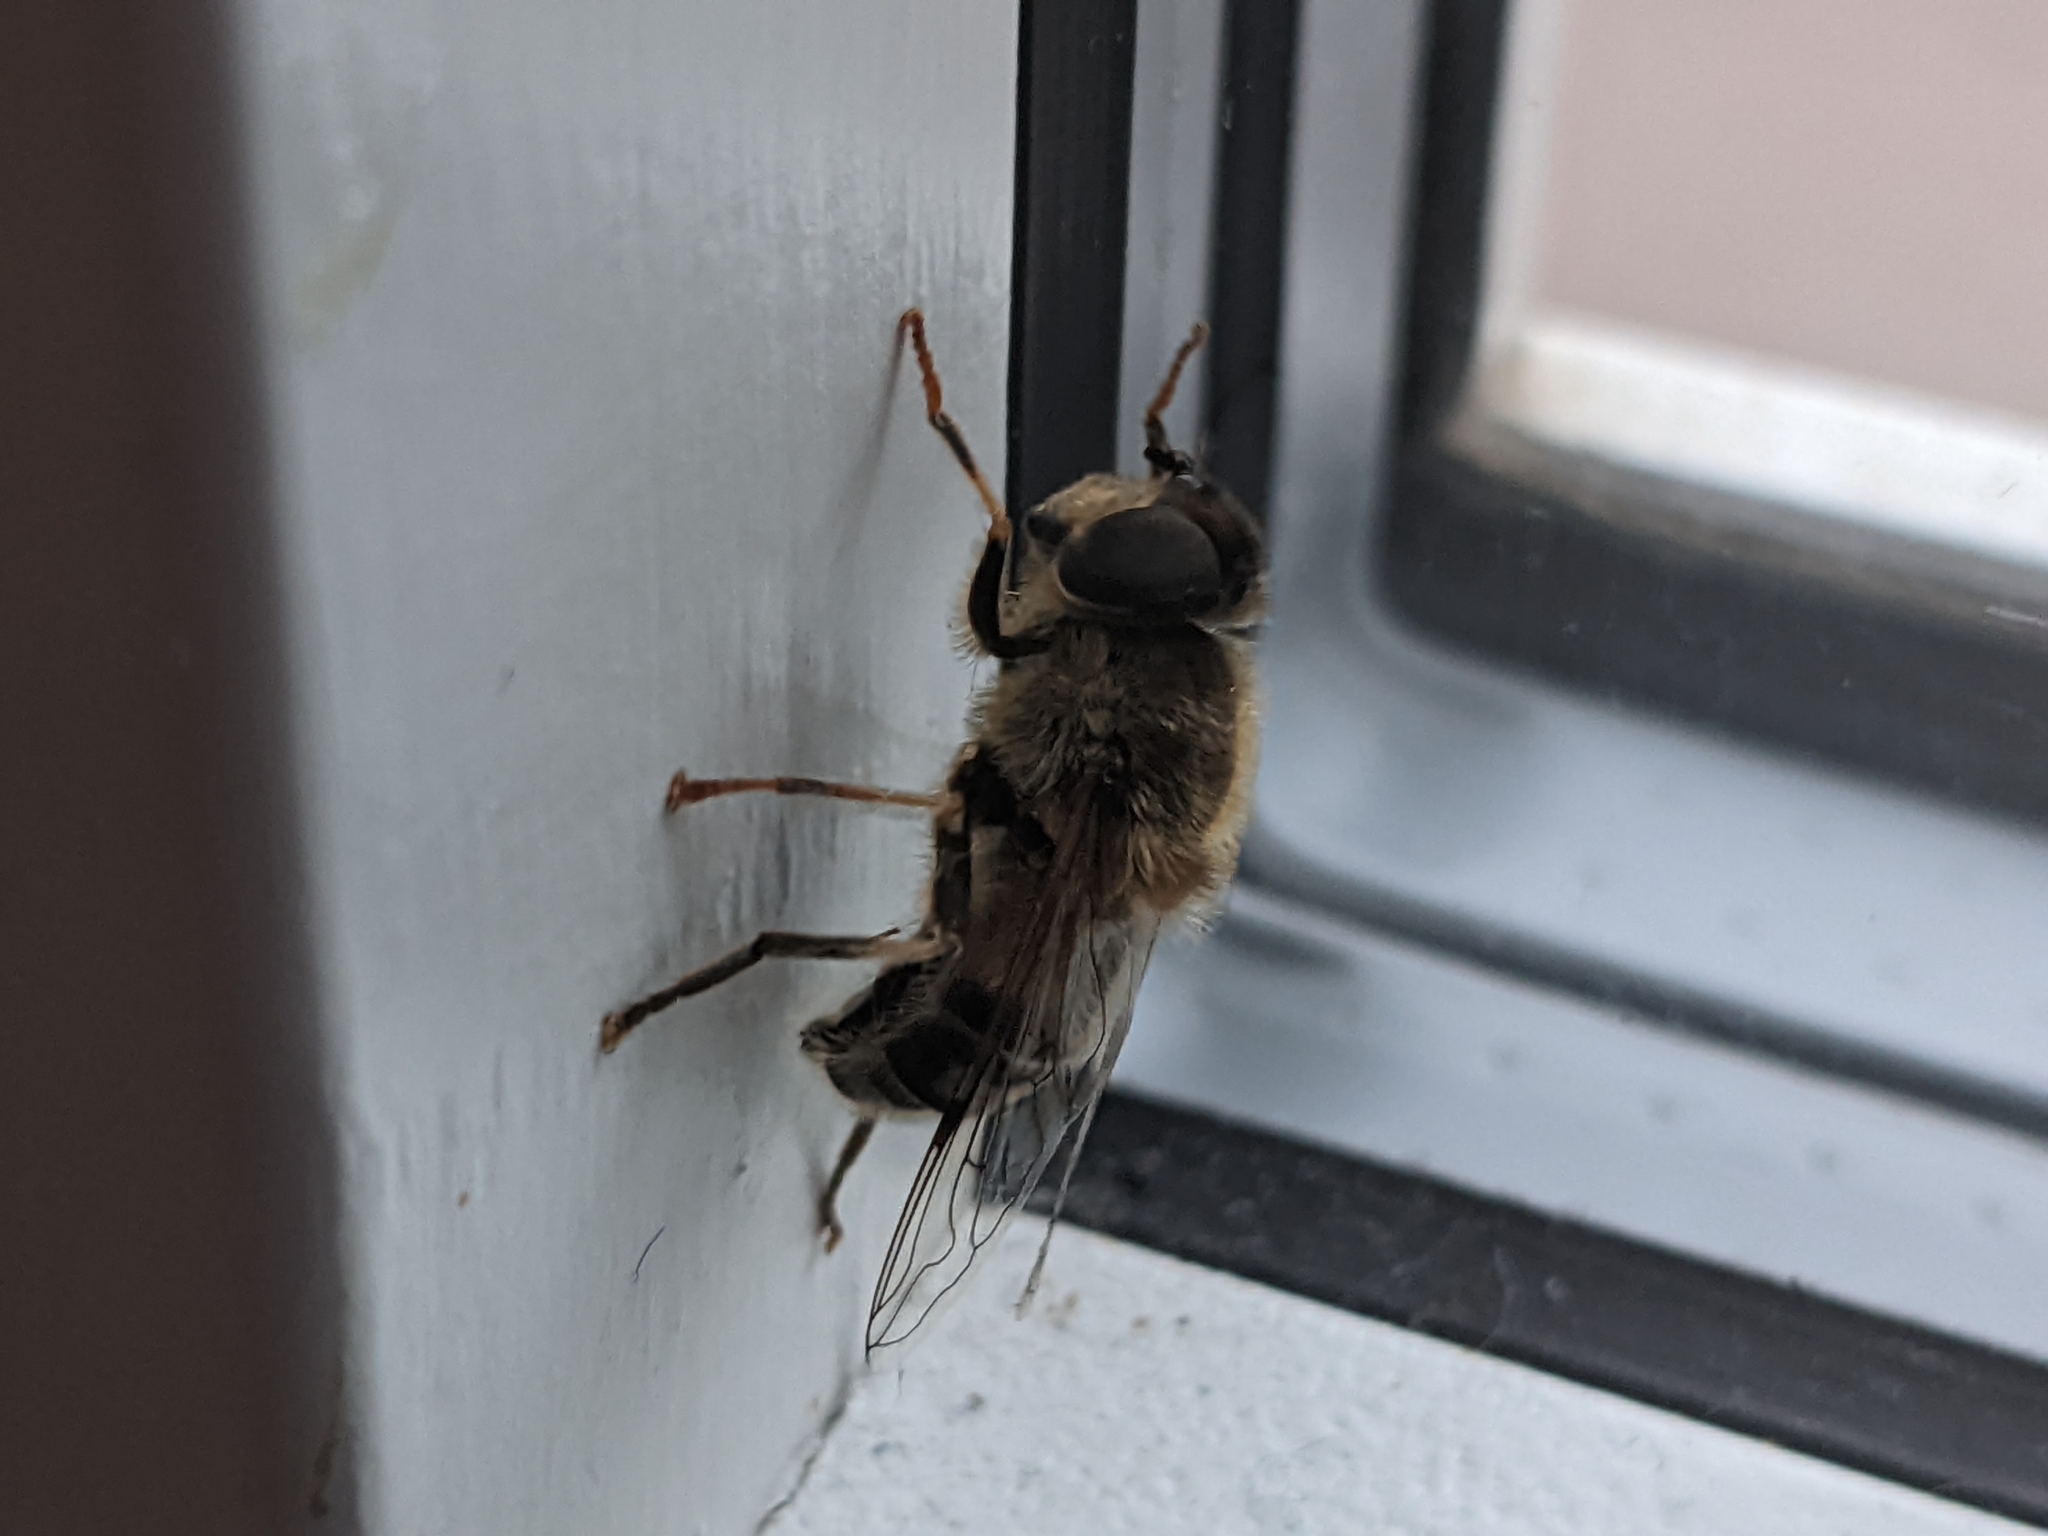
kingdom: Animalia
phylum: Arthropoda
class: Insecta
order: Diptera
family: Syrphidae
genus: Eristalis
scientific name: Eristalis pertinax
